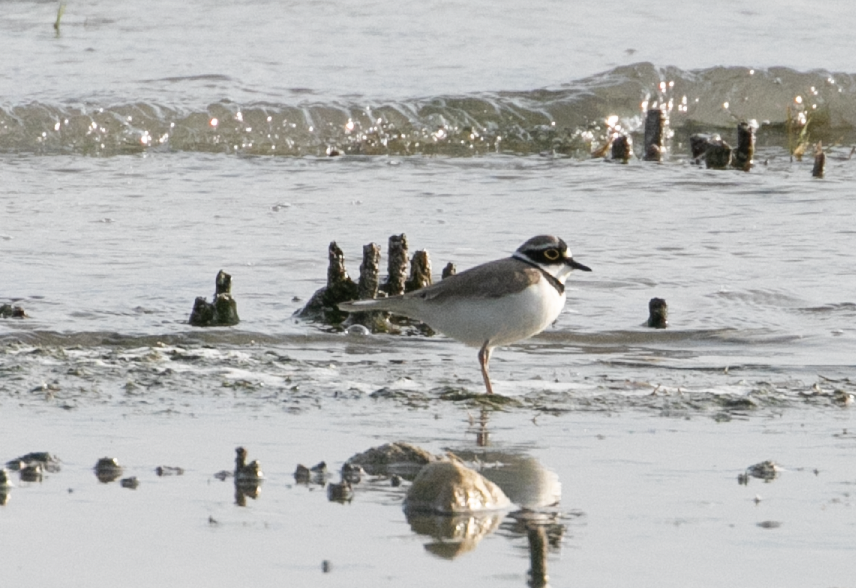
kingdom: Animalia
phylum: Chordata
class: Aves
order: Charadriiformes
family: Charadriidae
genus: Charadrius
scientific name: Charadrius dubius
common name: Little ringed plover
